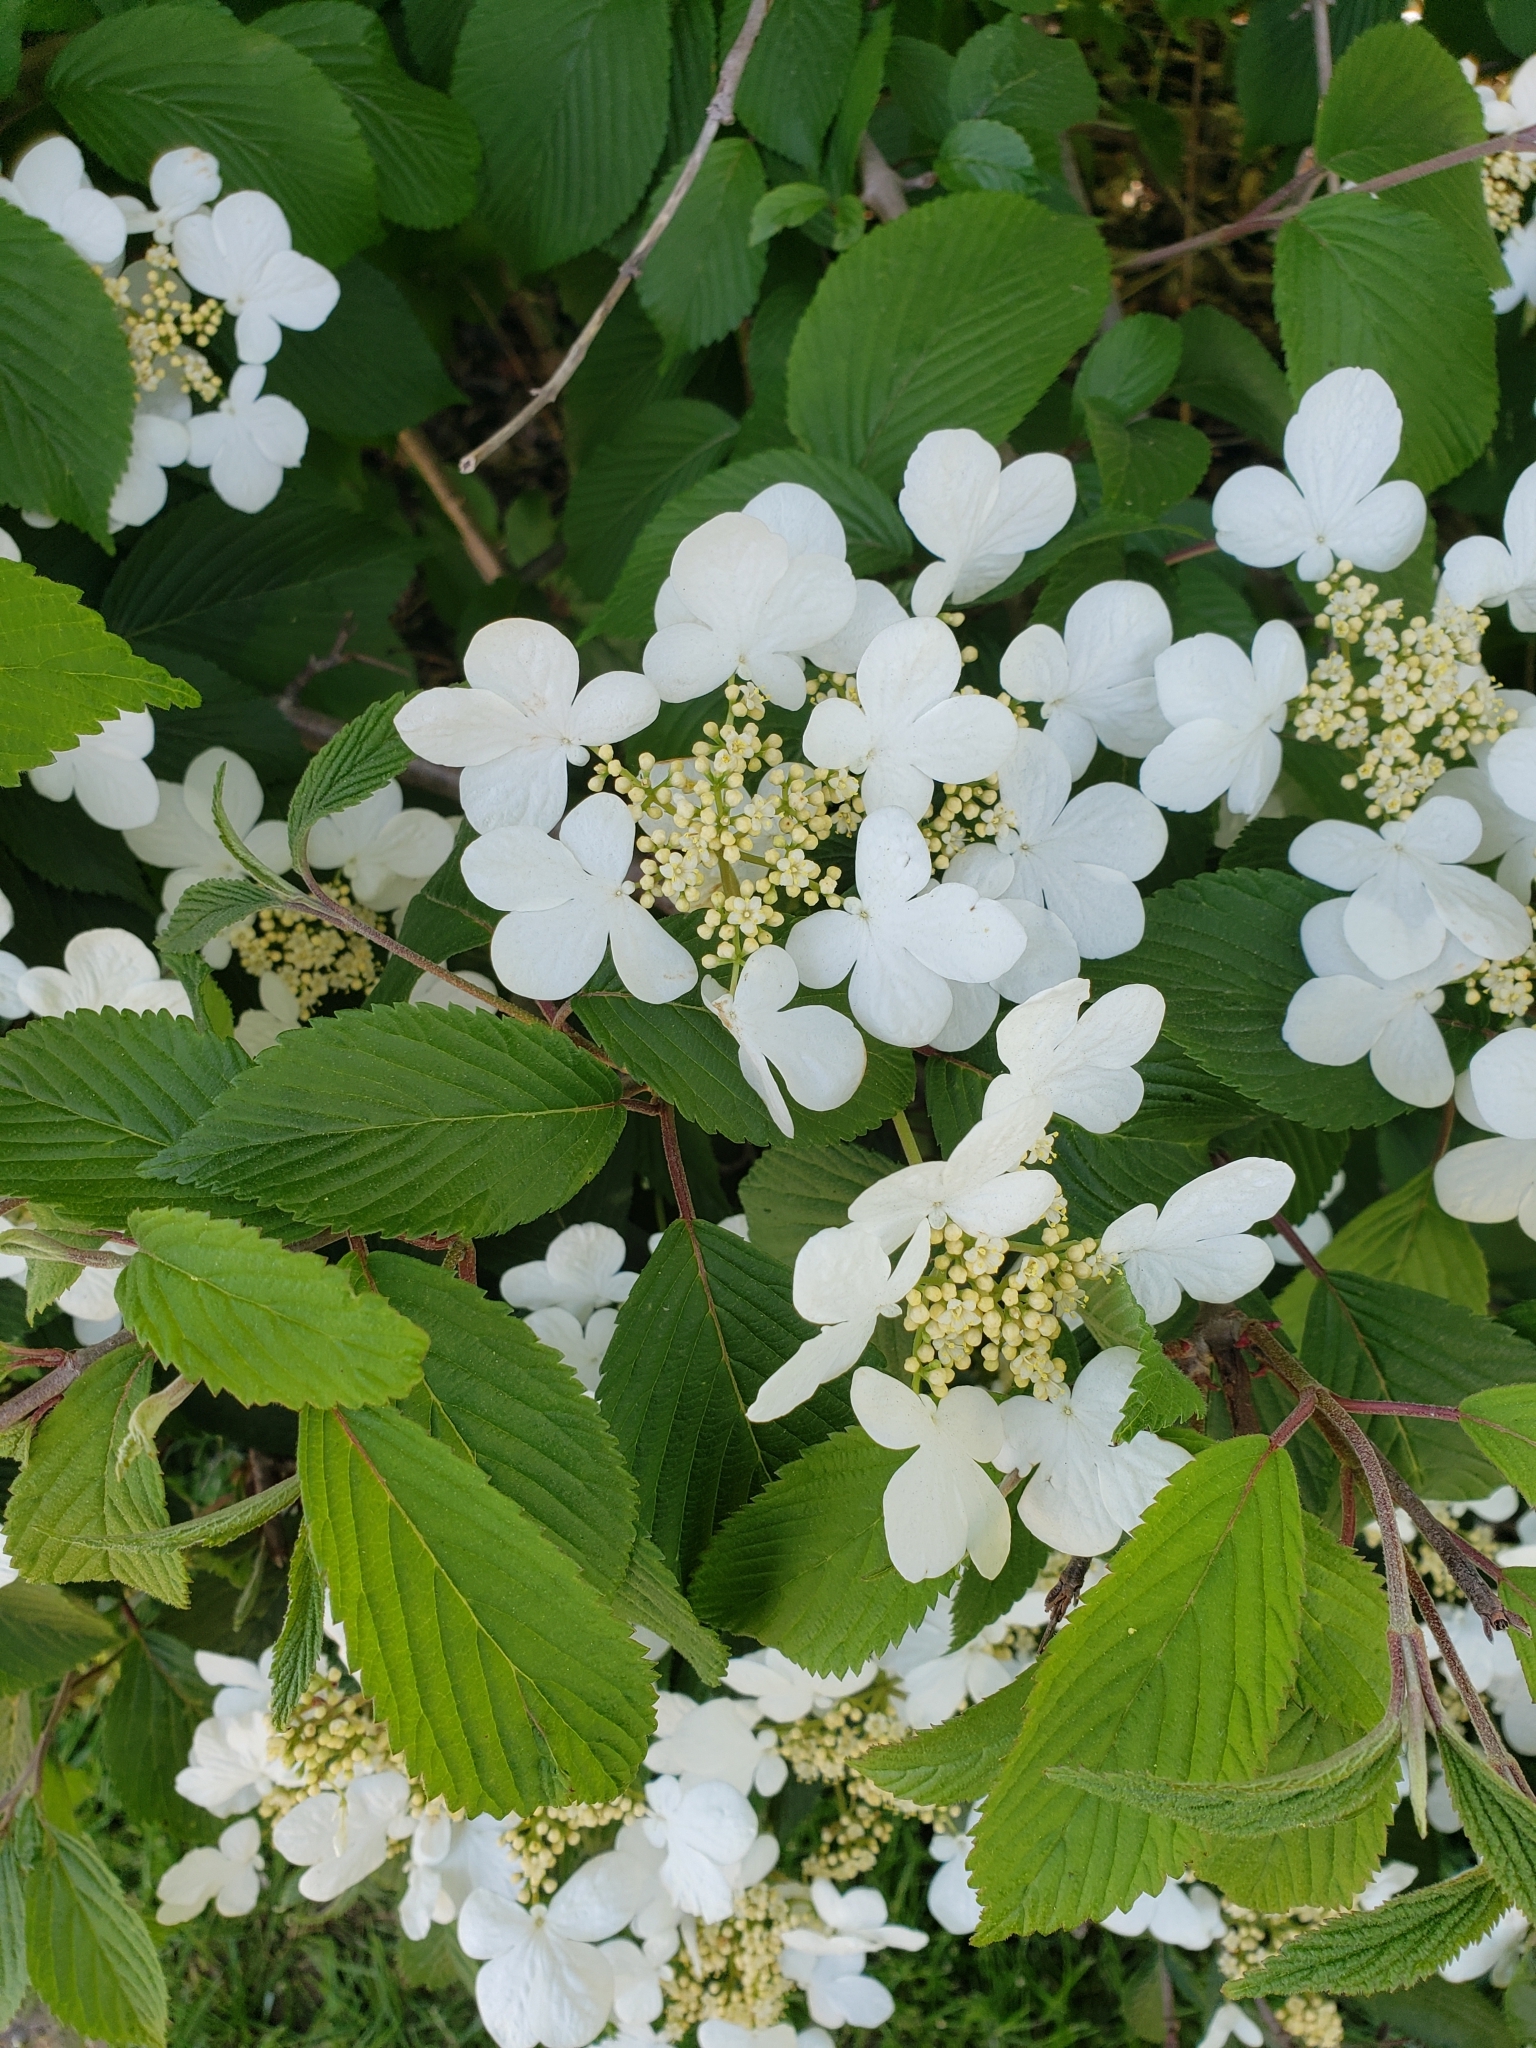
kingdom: Plantae
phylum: Tracheophyta
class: Magnoliopsida
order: Dipsacales
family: Viburnaceae
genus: Viburnum
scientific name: Viburnum plicatum
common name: Japanese snowball
